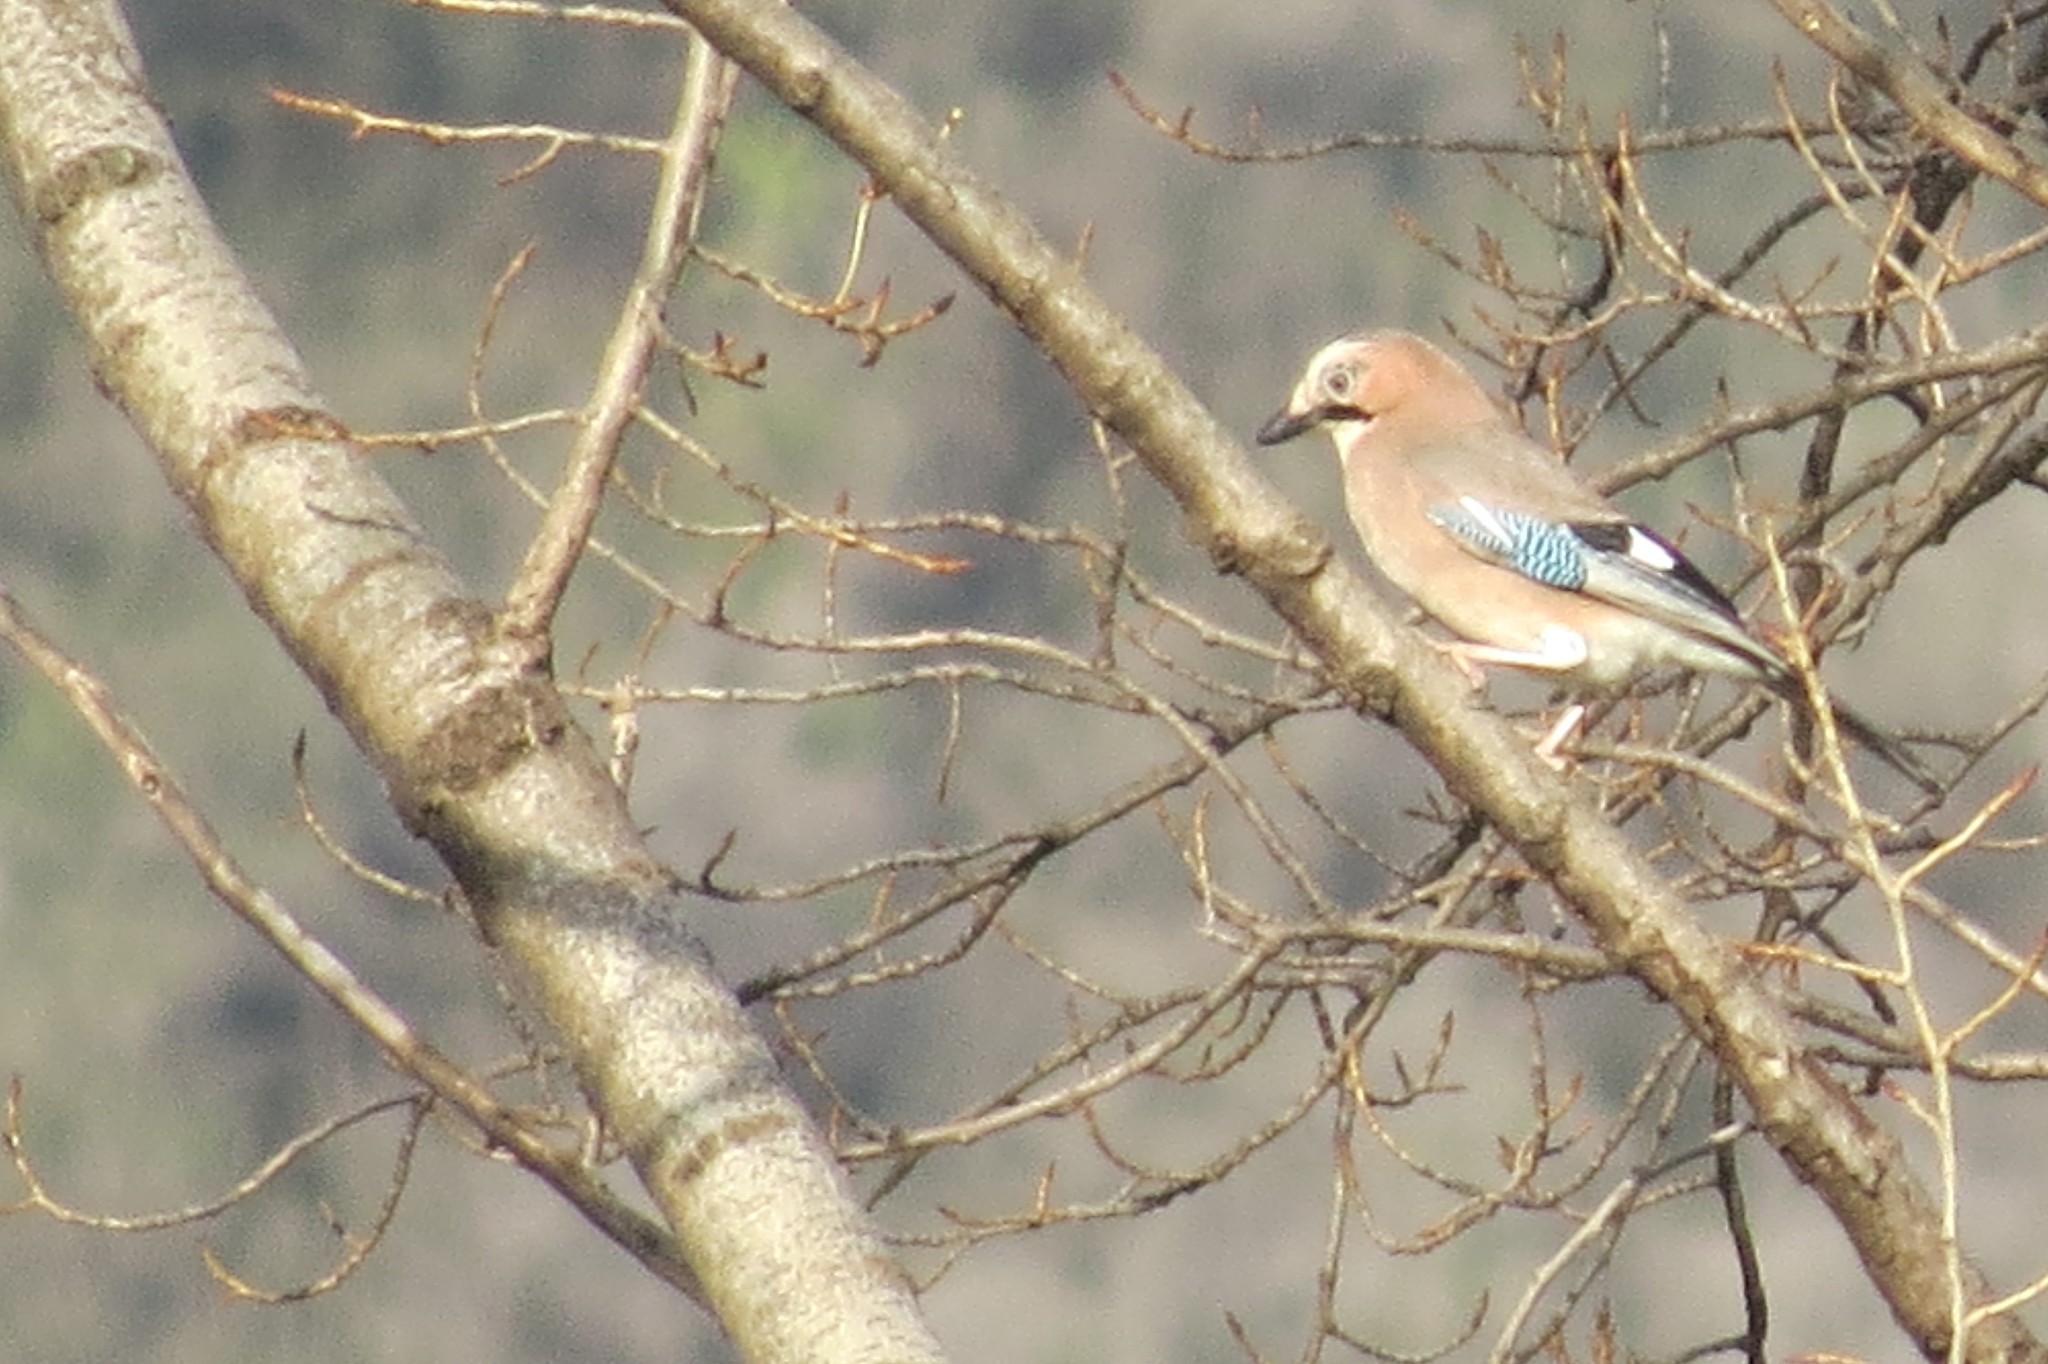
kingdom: Animalia
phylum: Chordata
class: Aves
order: Passeriformes
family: Corvidae
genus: Garrulus
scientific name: Garrulus glandarius
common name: Eurasian jay
